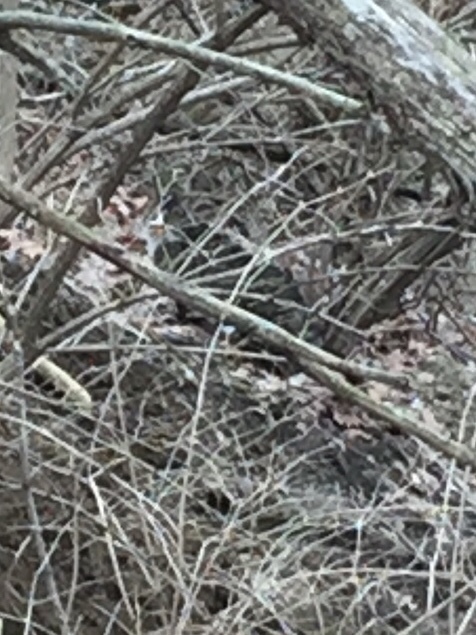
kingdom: Animalia
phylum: Chordata
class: Mammalia
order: Carnivora
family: Felidae
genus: Felis
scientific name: Felis catus
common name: Domestic cat
